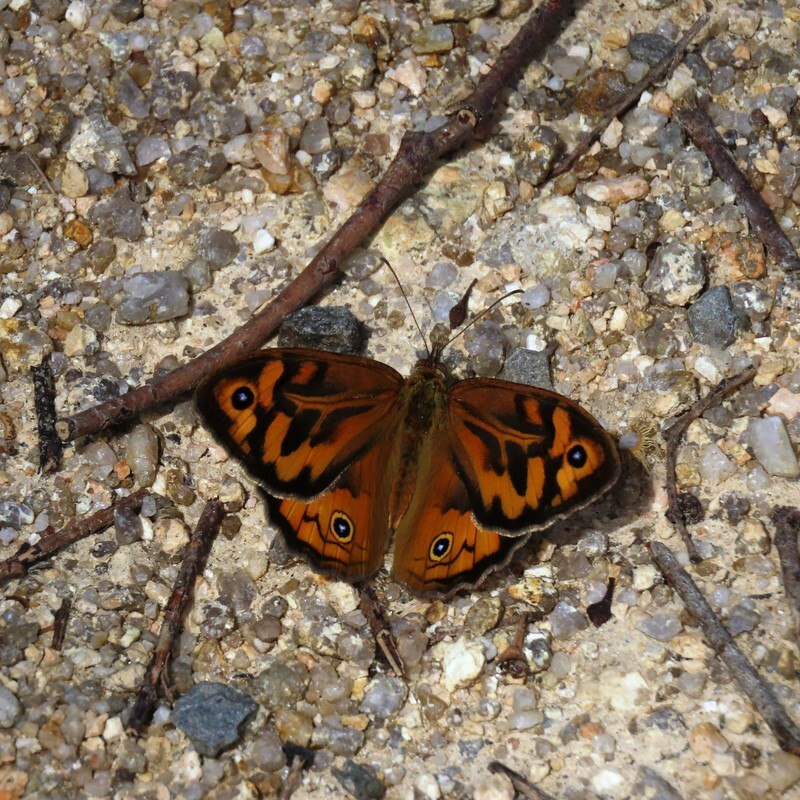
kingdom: Animalia
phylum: Arthropoda
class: Insecta
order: Lepidoptera
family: Nymphalidae
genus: Heteronympha
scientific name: Heteronympha merope
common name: Common brown
